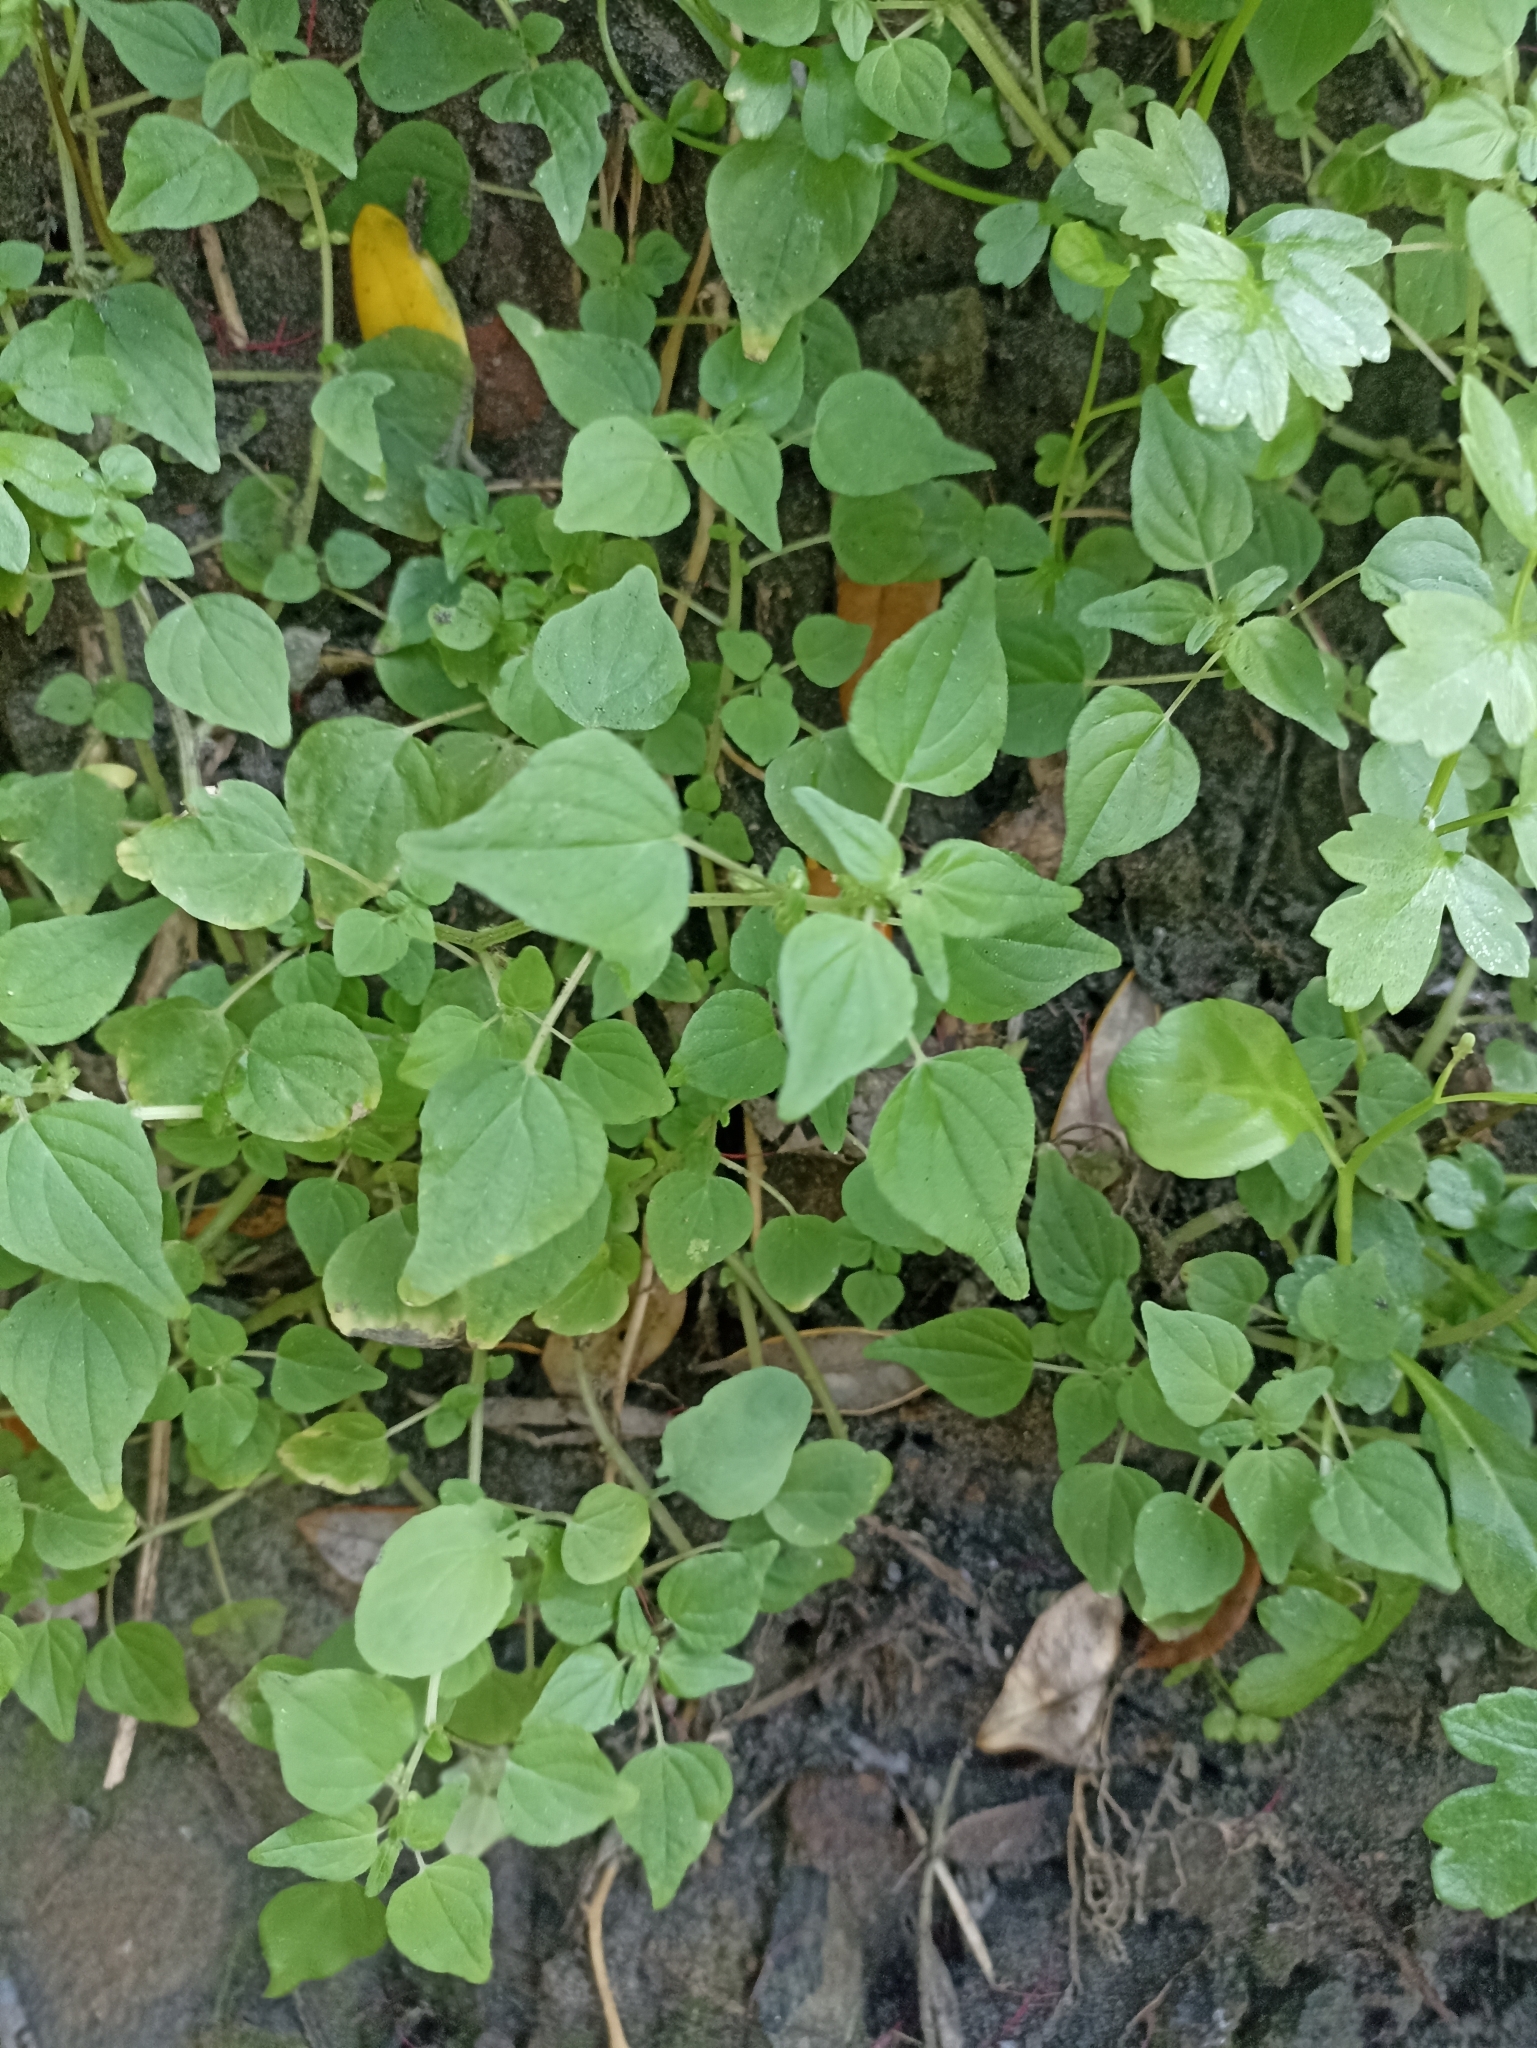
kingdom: Plantae
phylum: Tracheophyta
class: Magnoliopsida
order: Rosales
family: Urticaceae
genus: Parietaria
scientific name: Parietaria debilis
